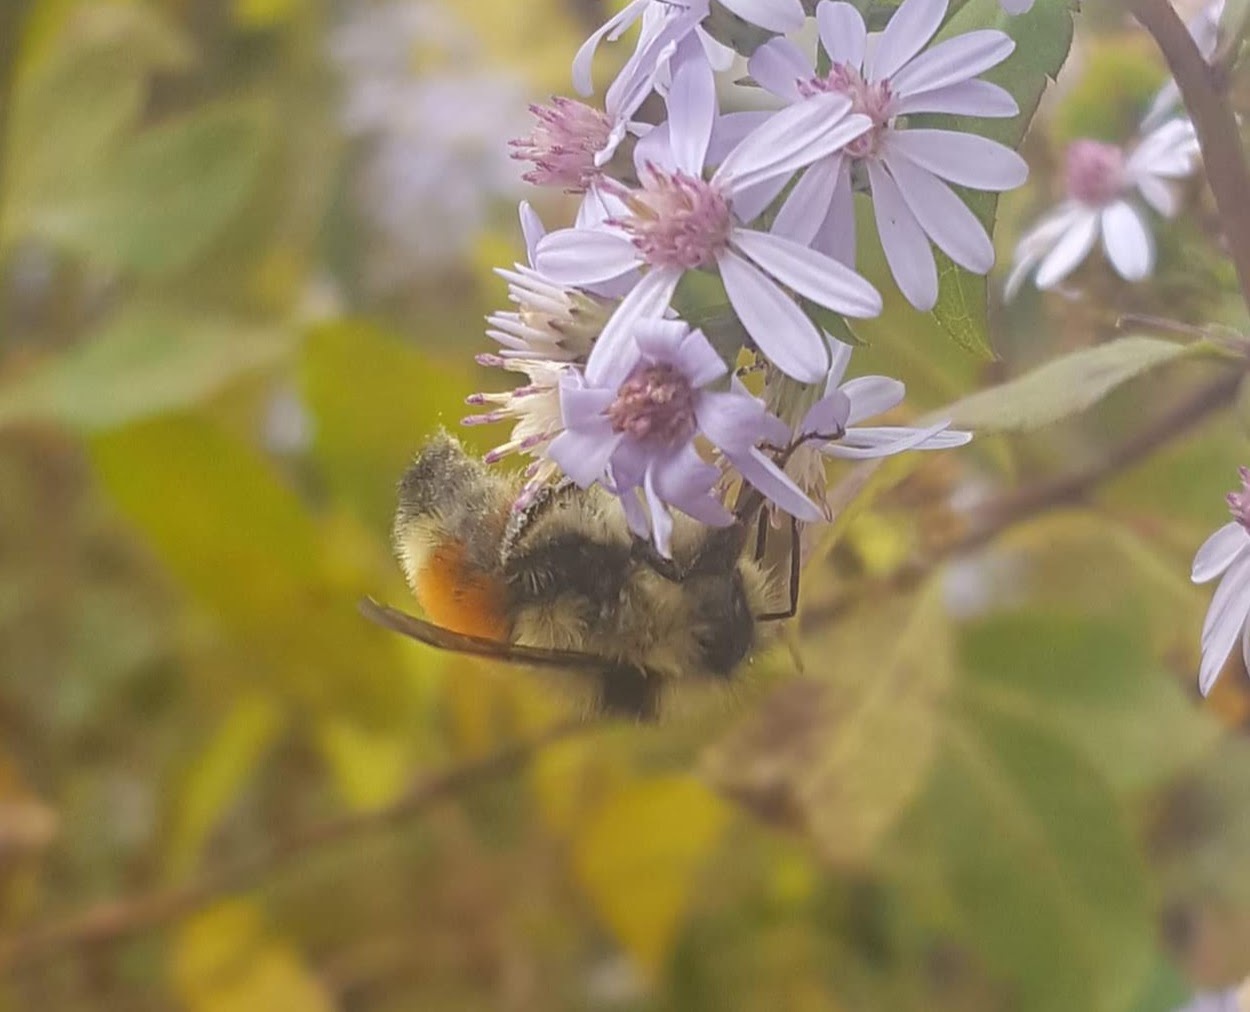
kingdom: Animalia
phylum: Arthropoda
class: Insecta
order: Hymenoptera
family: Apidae
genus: Bombus
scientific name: Bombus ternarius
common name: Tri-colored bumble bee
